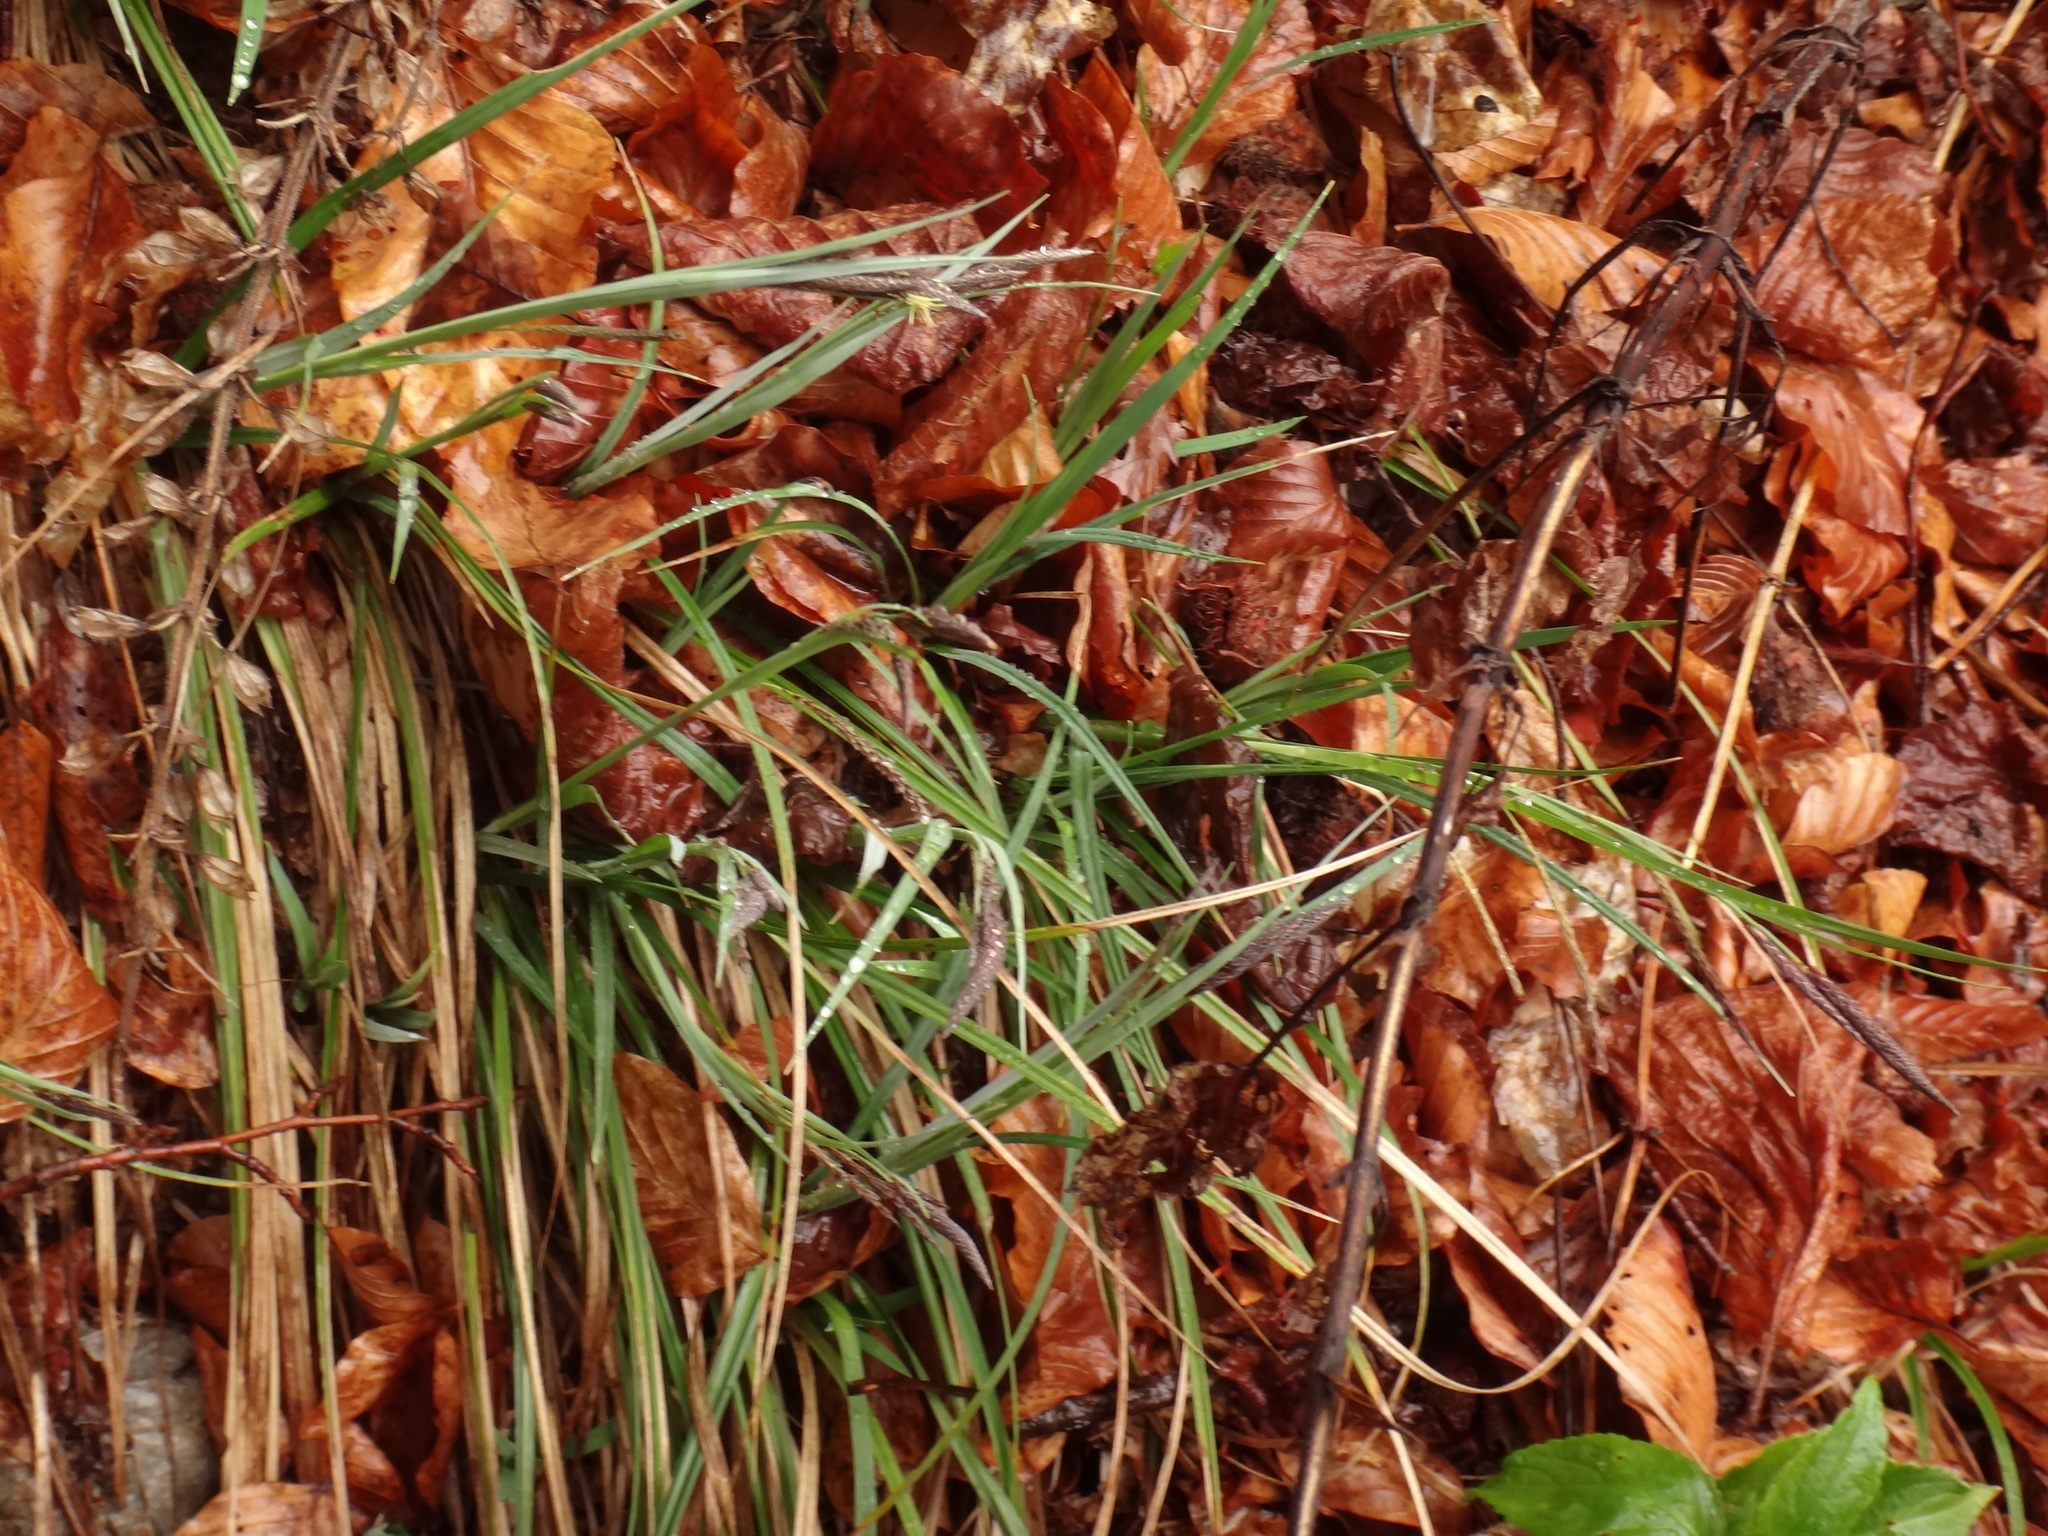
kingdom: Plantae
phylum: Tracheophyta
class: Liliopsida
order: Poales
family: Cyperaceae
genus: Carex
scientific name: Carex flacca
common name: Glaucous sedge
